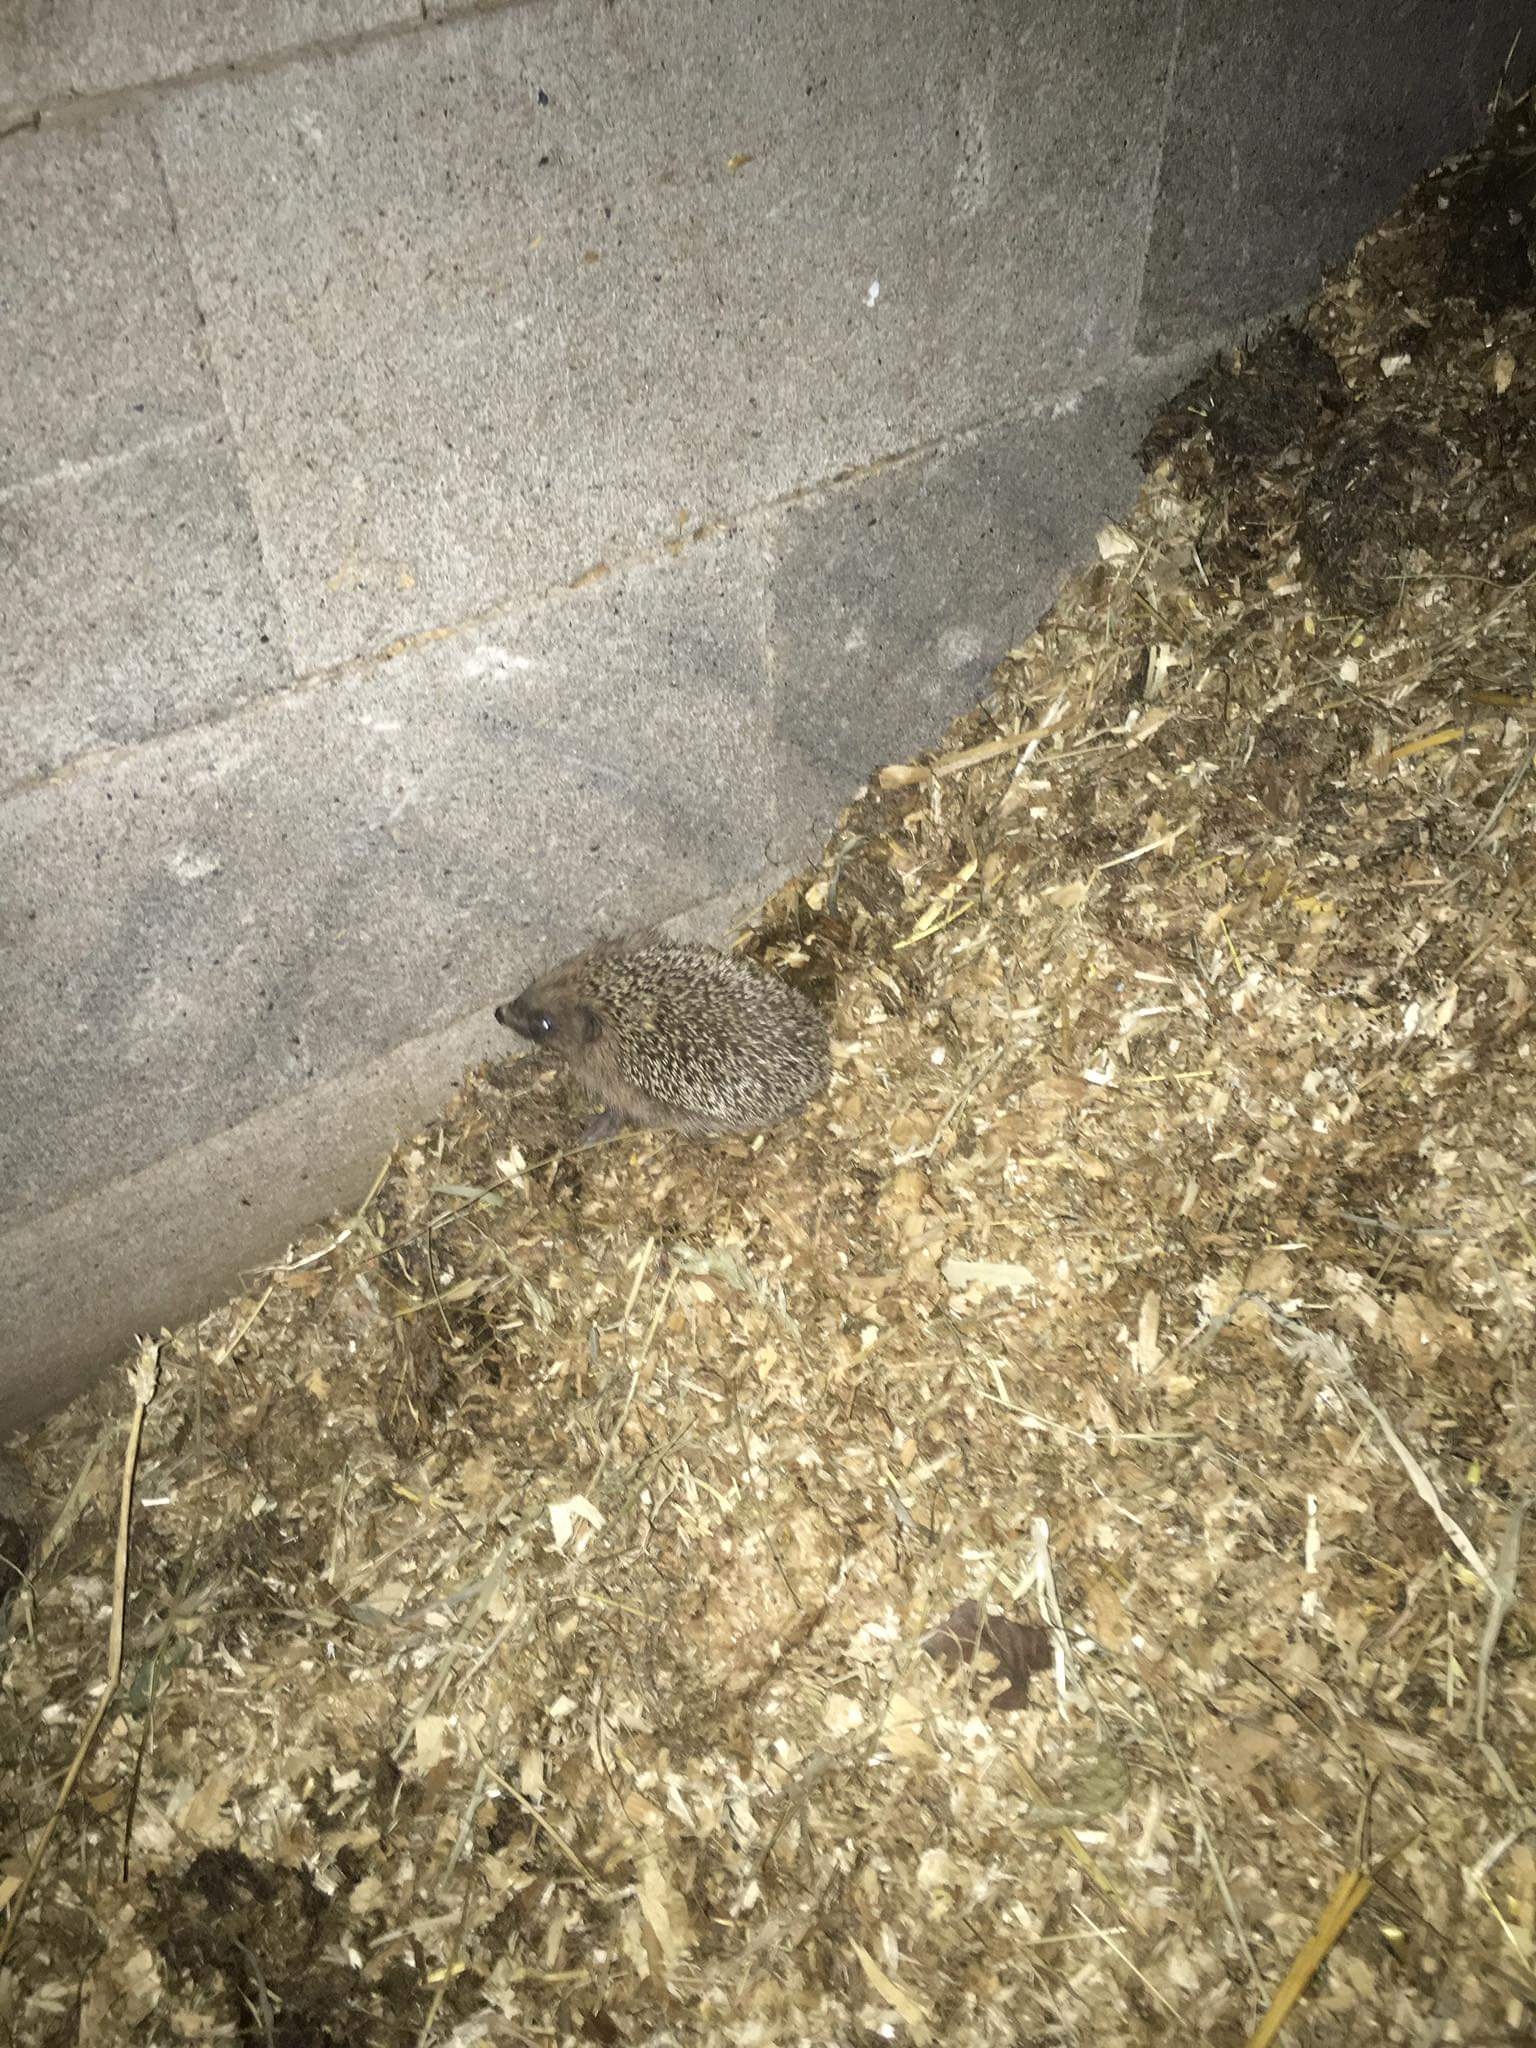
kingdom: Animalia
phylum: Chordata
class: Mammalia
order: Erinaceomorpha
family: Erinaceidae
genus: Erinaceus
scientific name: Erinaceus europaeus
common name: West european hedgehog
